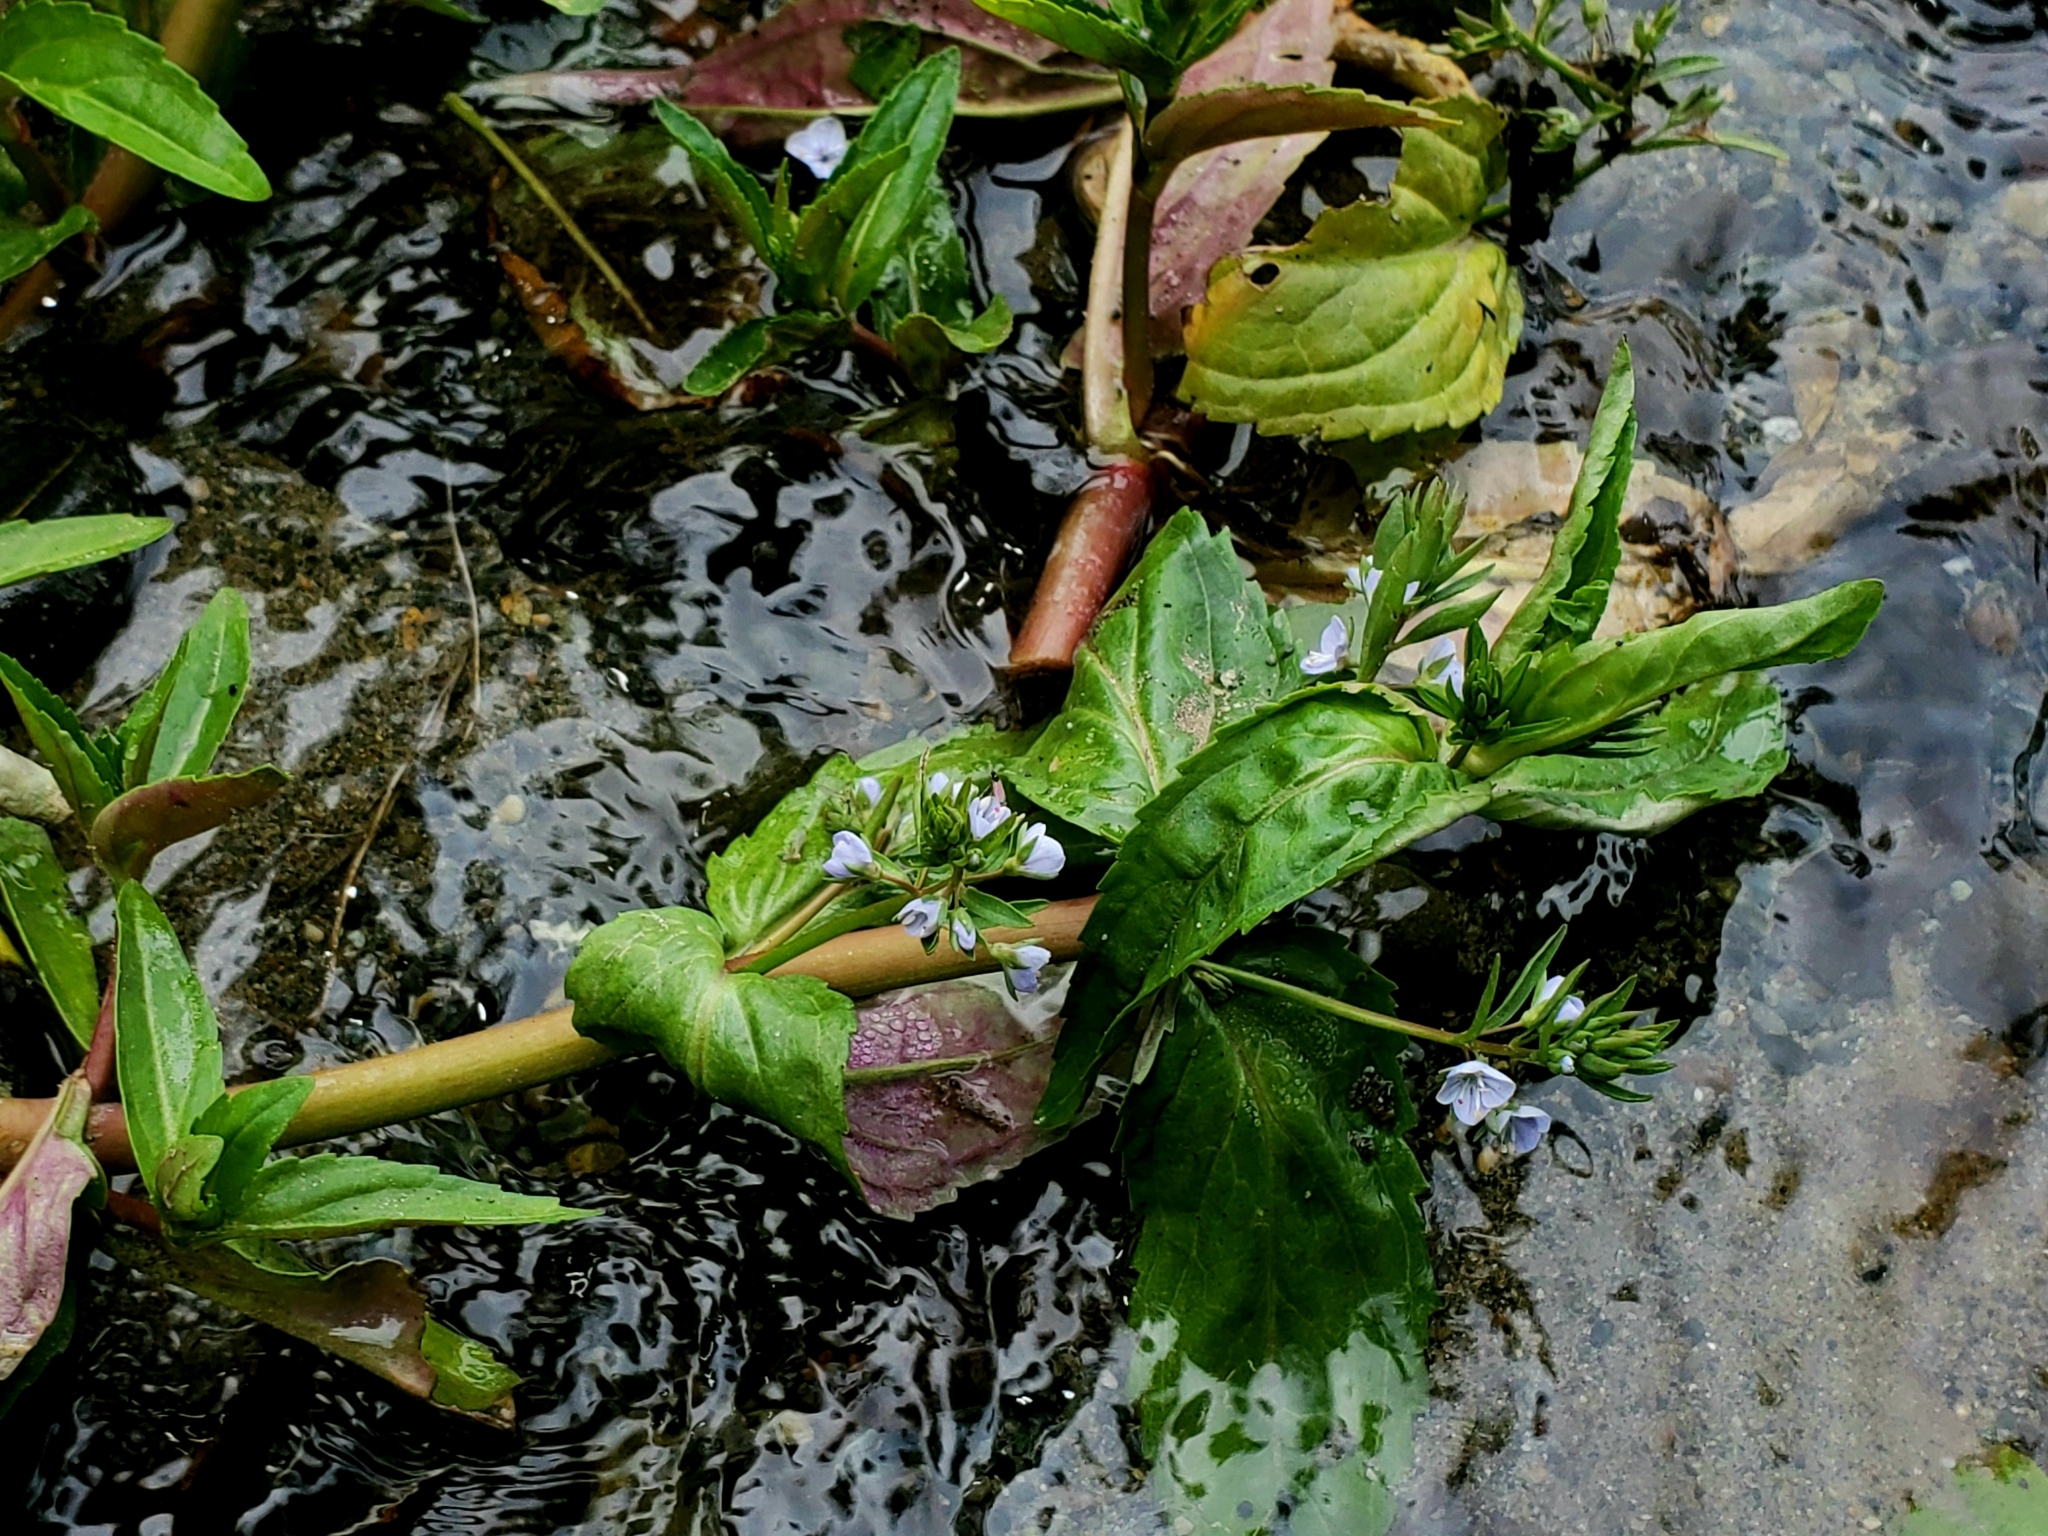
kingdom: Plantae
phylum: Tracheophyta
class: Magnoliopsida
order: Lamiales
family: Plantaginaceae
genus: Veronica
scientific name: Veronica anagallis-aquatica
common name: Water speedwell
